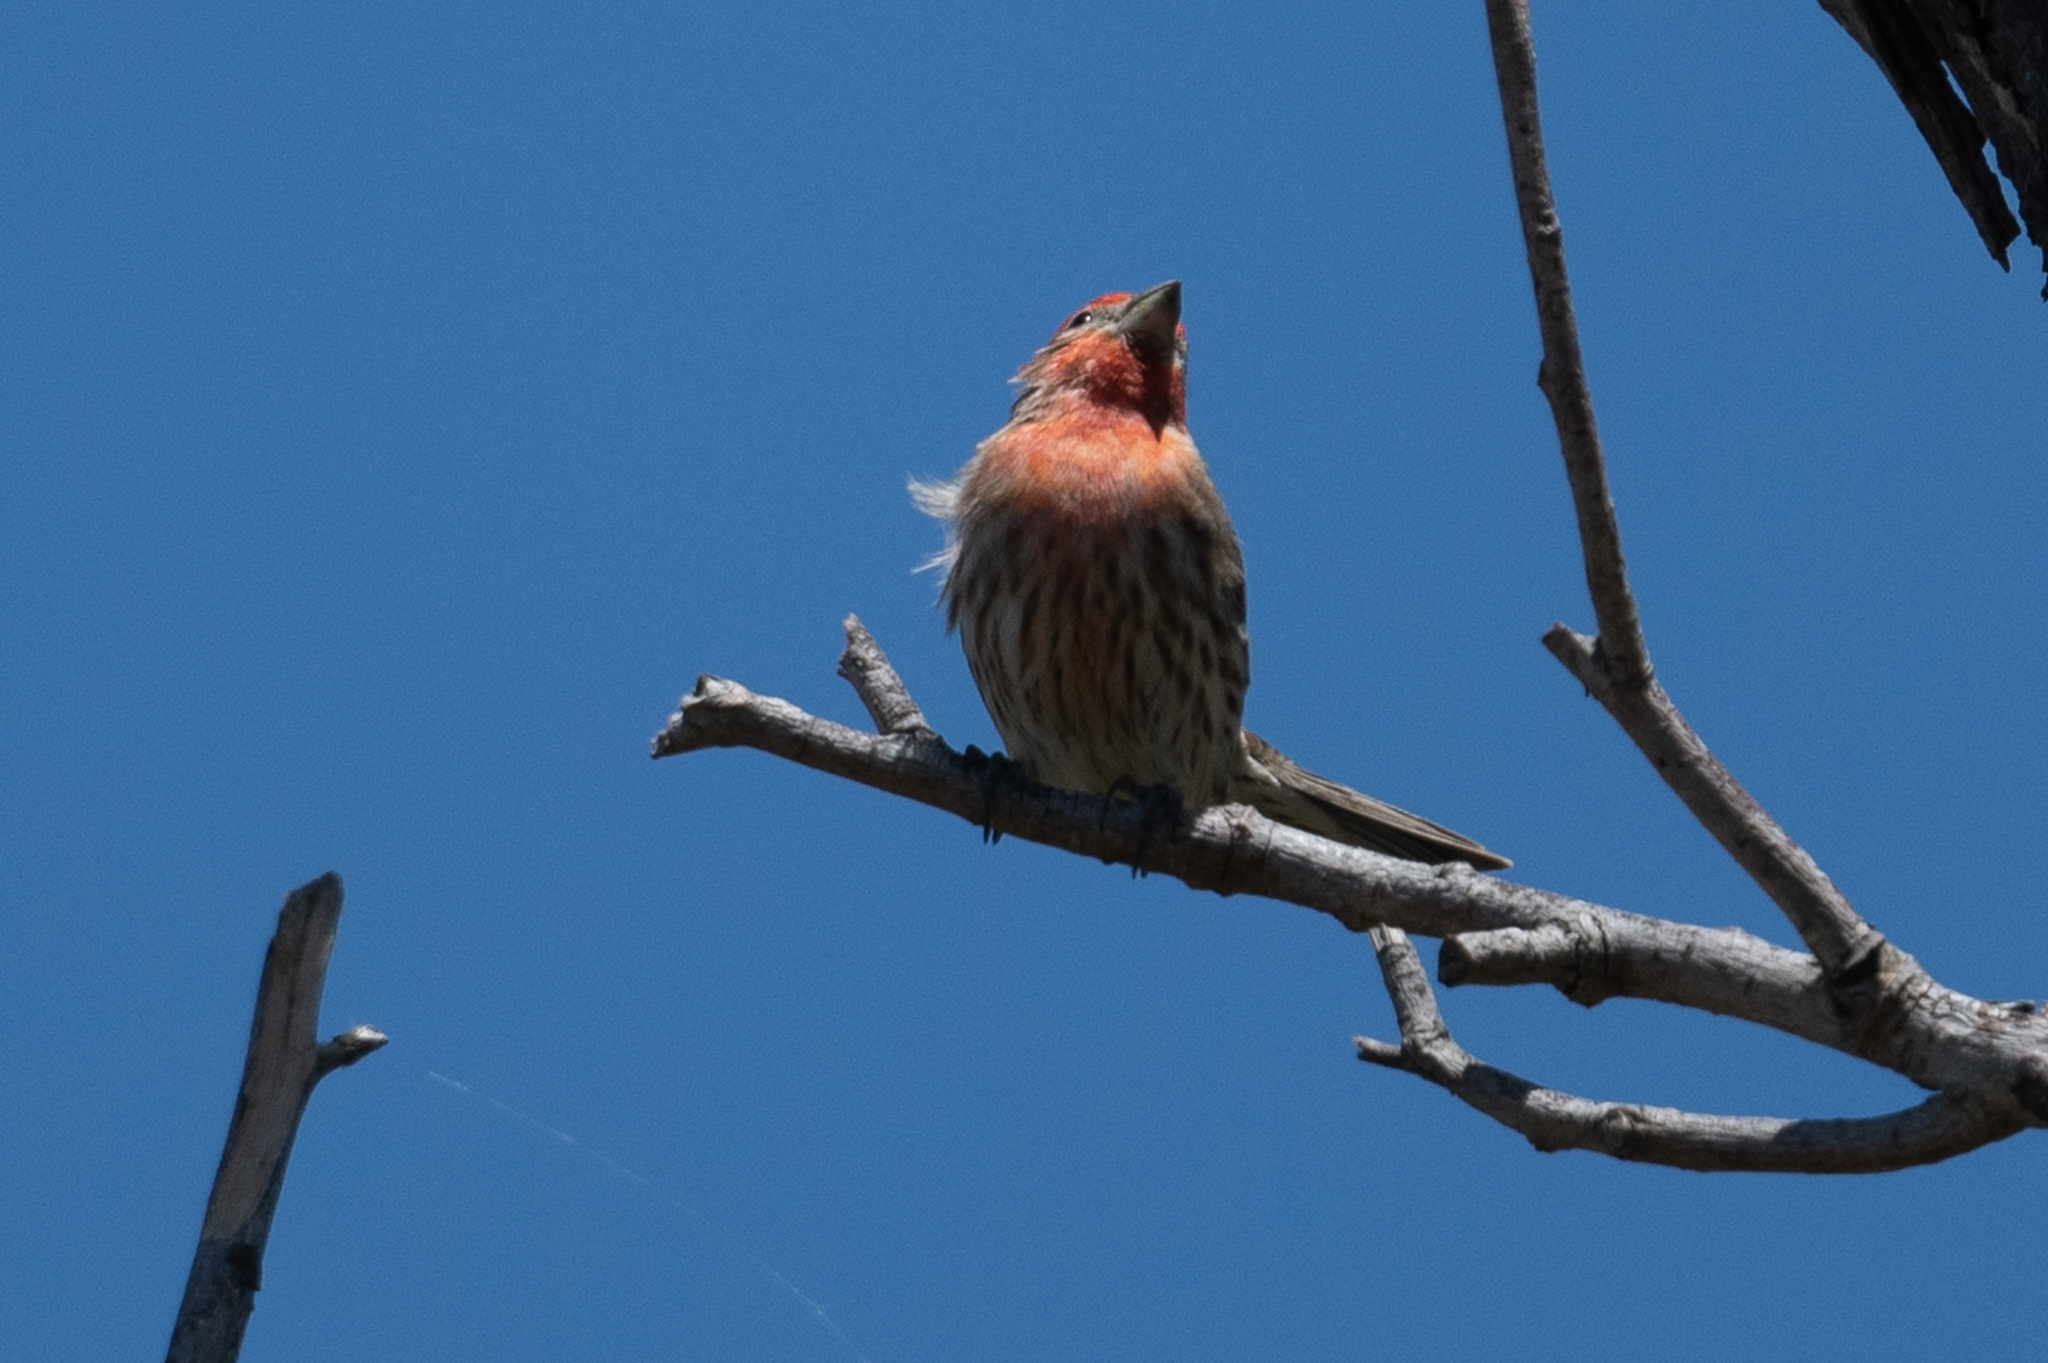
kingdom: Animalia
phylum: Chordata
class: Aves
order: Passeriformes
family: Fringillidae
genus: Haemorhous
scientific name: Haemorhous mexicanus
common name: House finch
